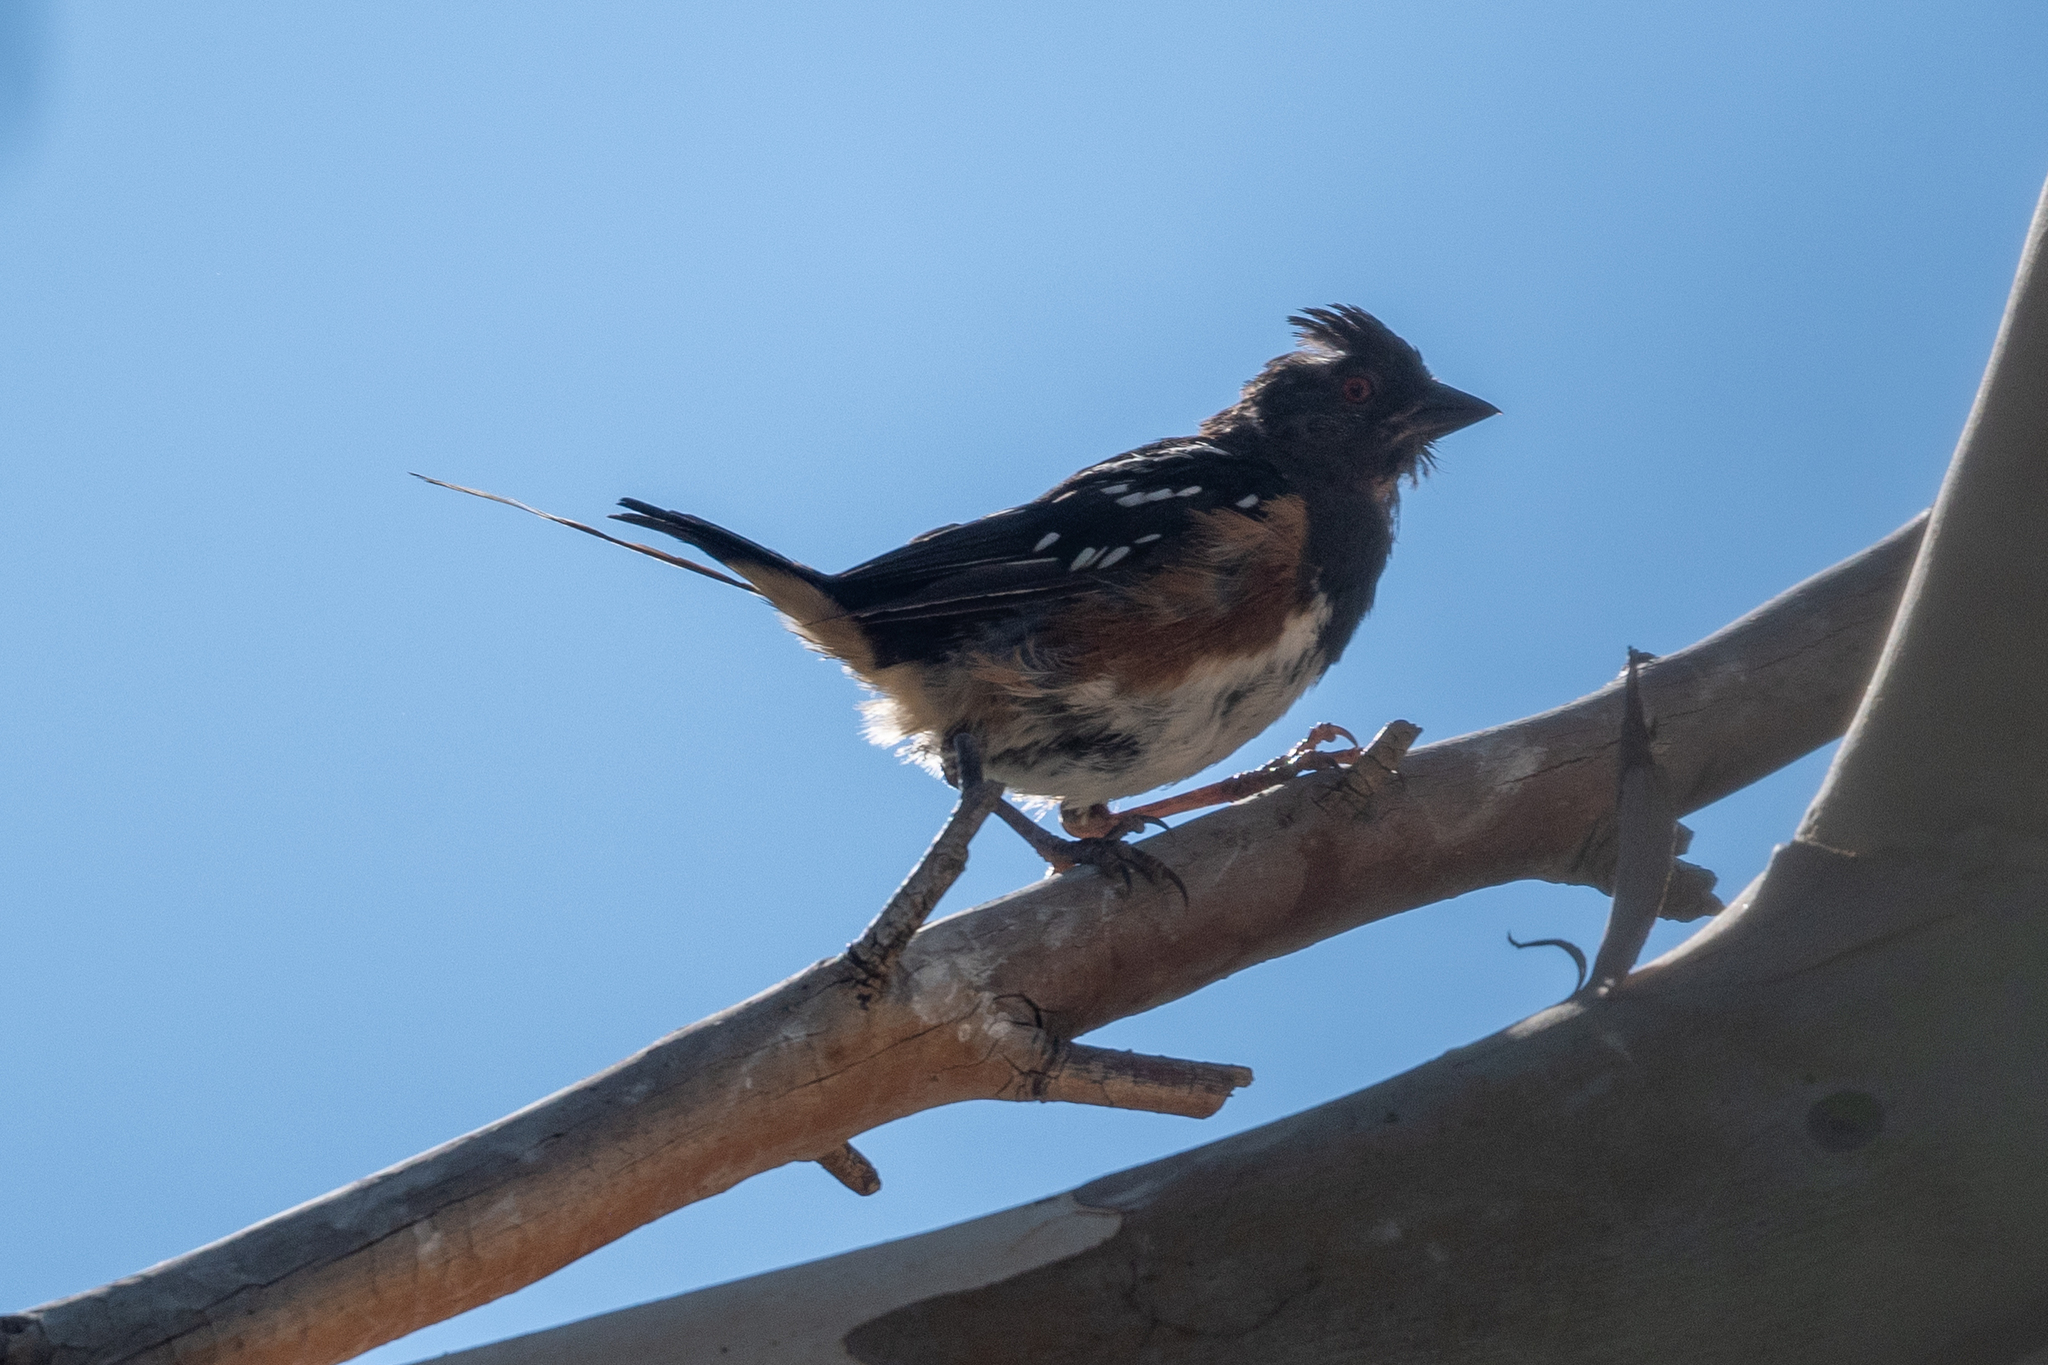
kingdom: Animalia
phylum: Chordata
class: Aves
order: Passeriformes
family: Passerellidae
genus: Pipilo
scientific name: Pipilo maculatus
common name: Spotted towhee
